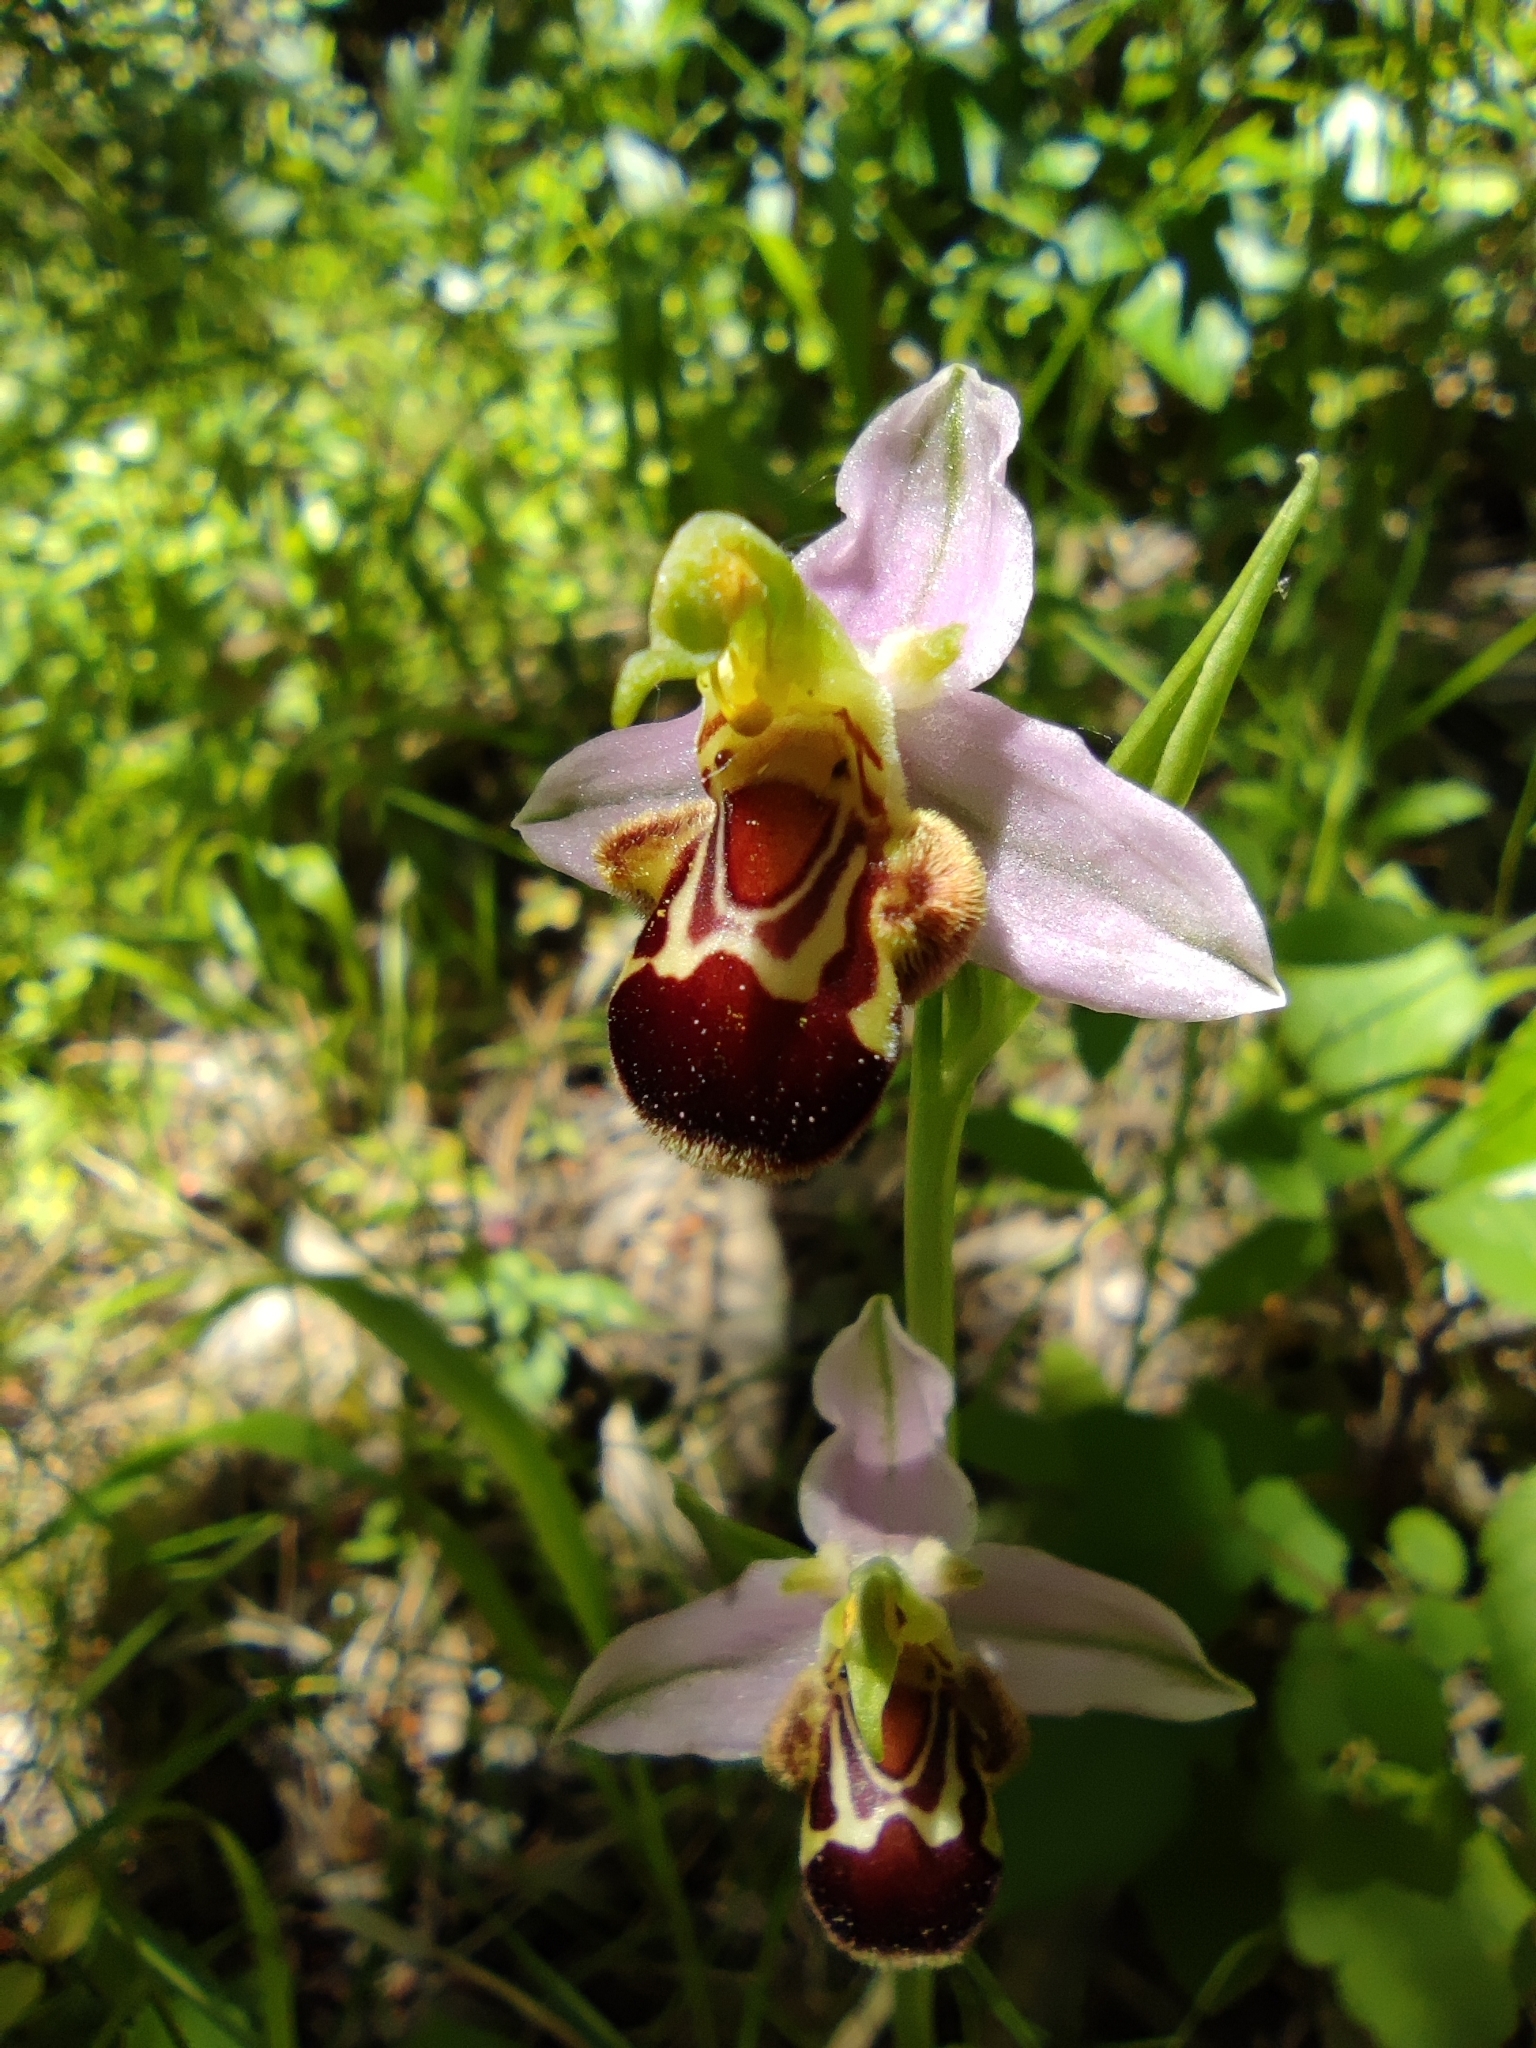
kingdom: Plantae
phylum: Tracheophyta
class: Liliopsida
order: Asparagales
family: Orchidaceae
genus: Ophrys
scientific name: Ophrys apifera
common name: Bee orchid
